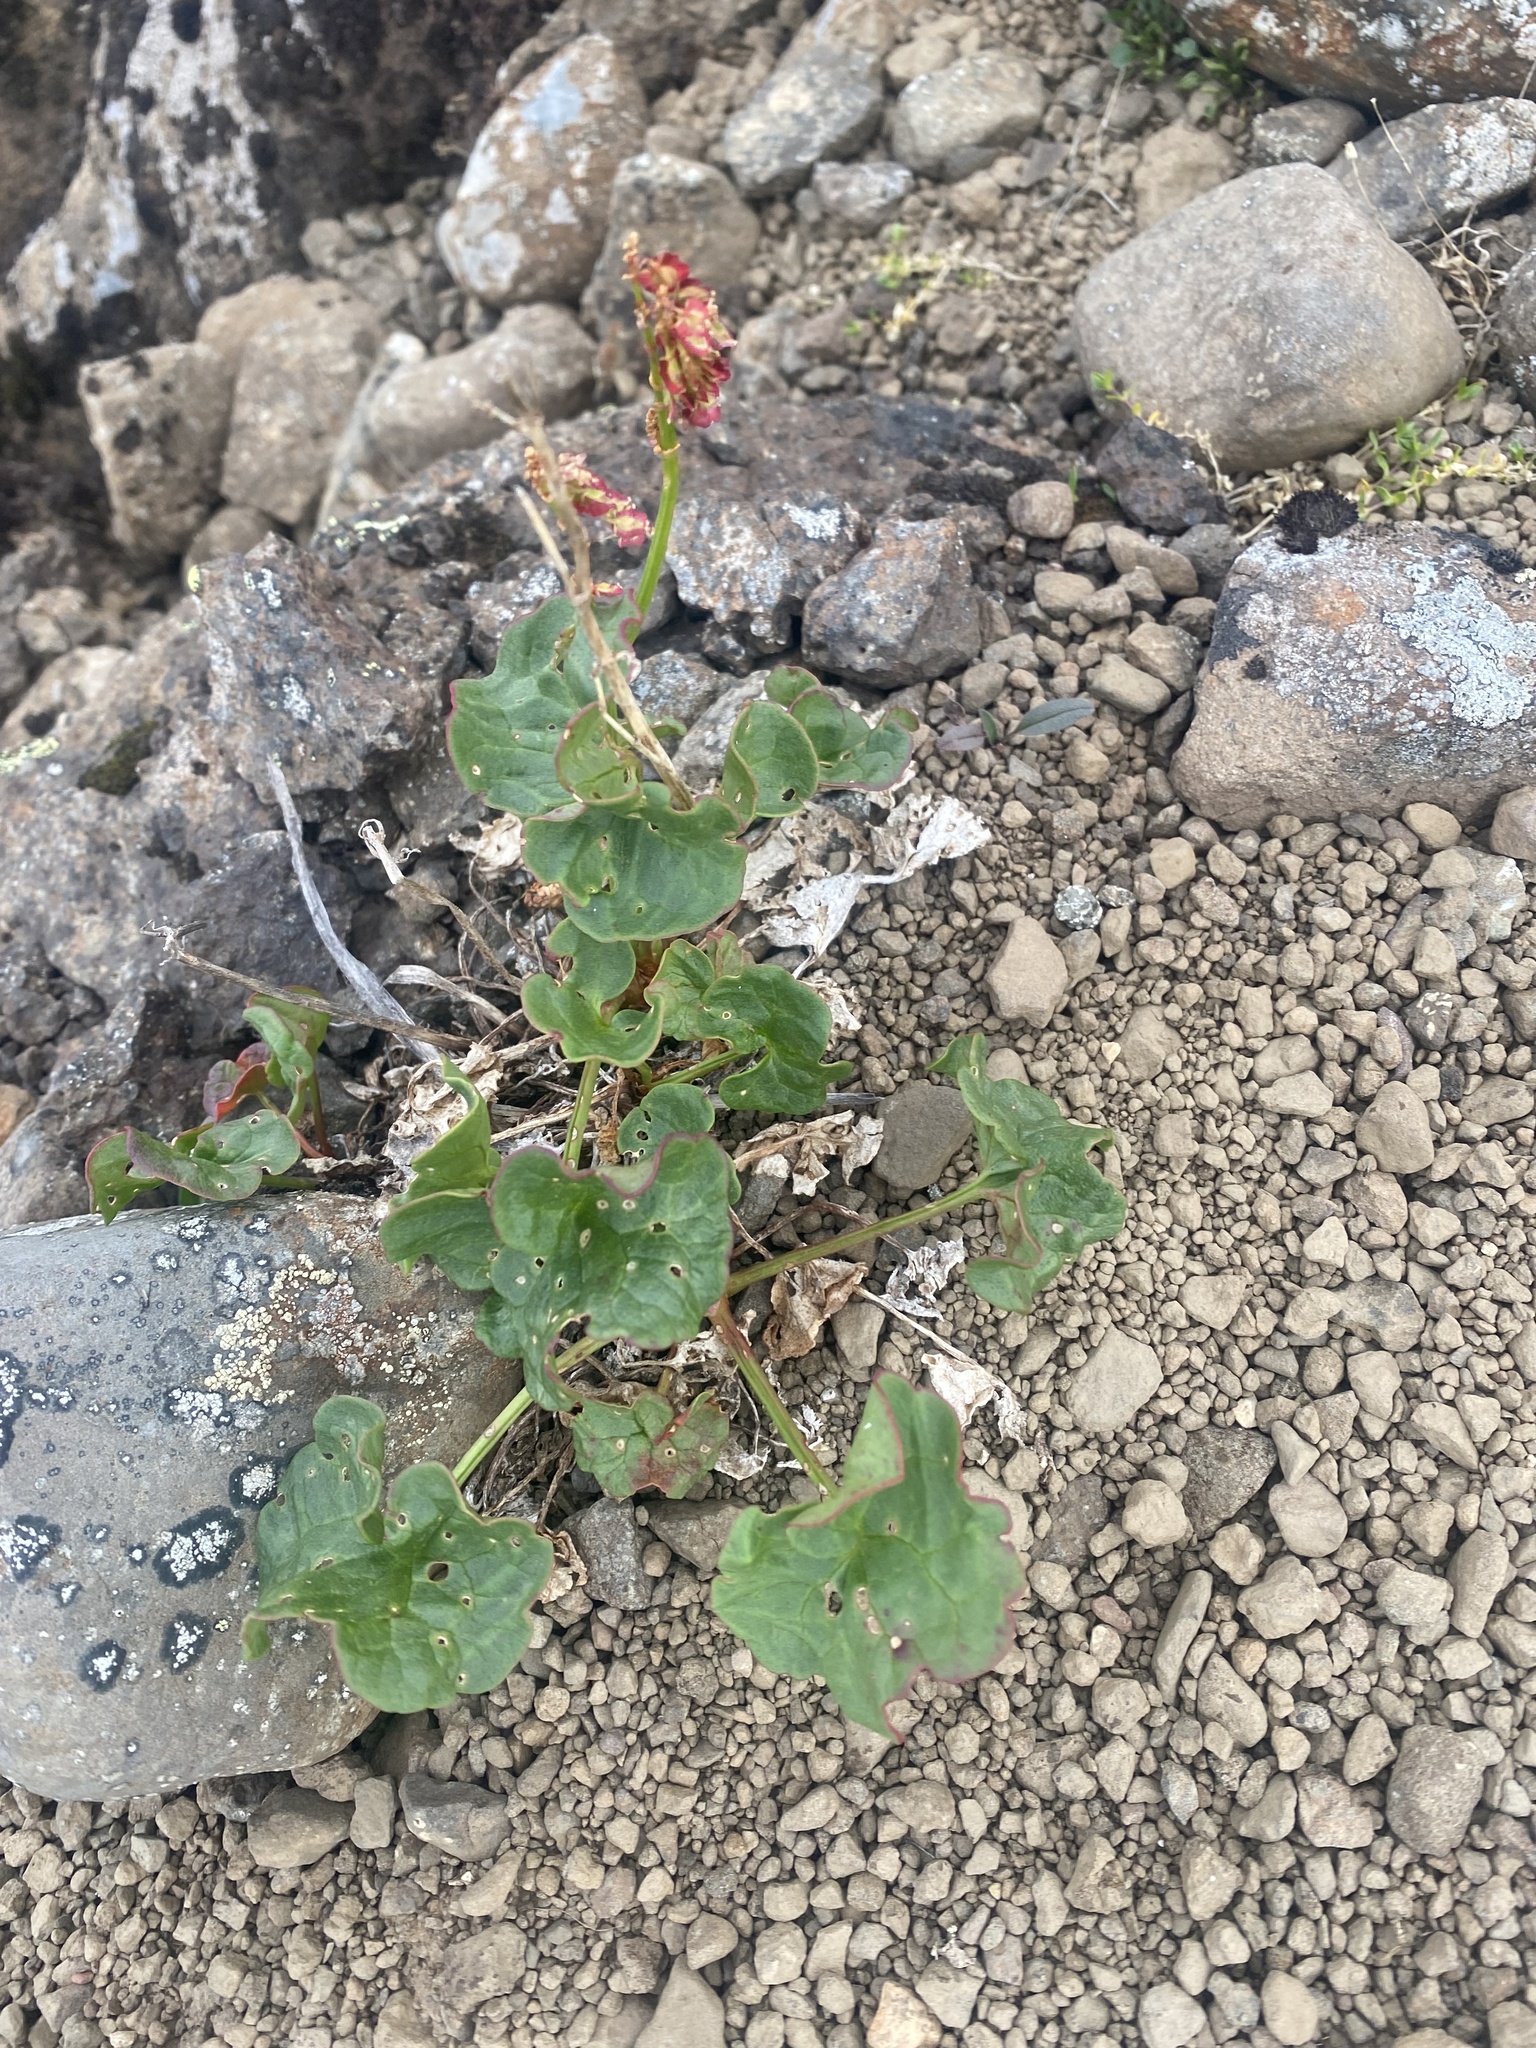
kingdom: Plantae
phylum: Tracheophyta
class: Magnoliopsida
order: Caryophyllales
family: Polygonaceae
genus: Oxyria
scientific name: Oxyria digyna
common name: Alpine mountain-sorrel
